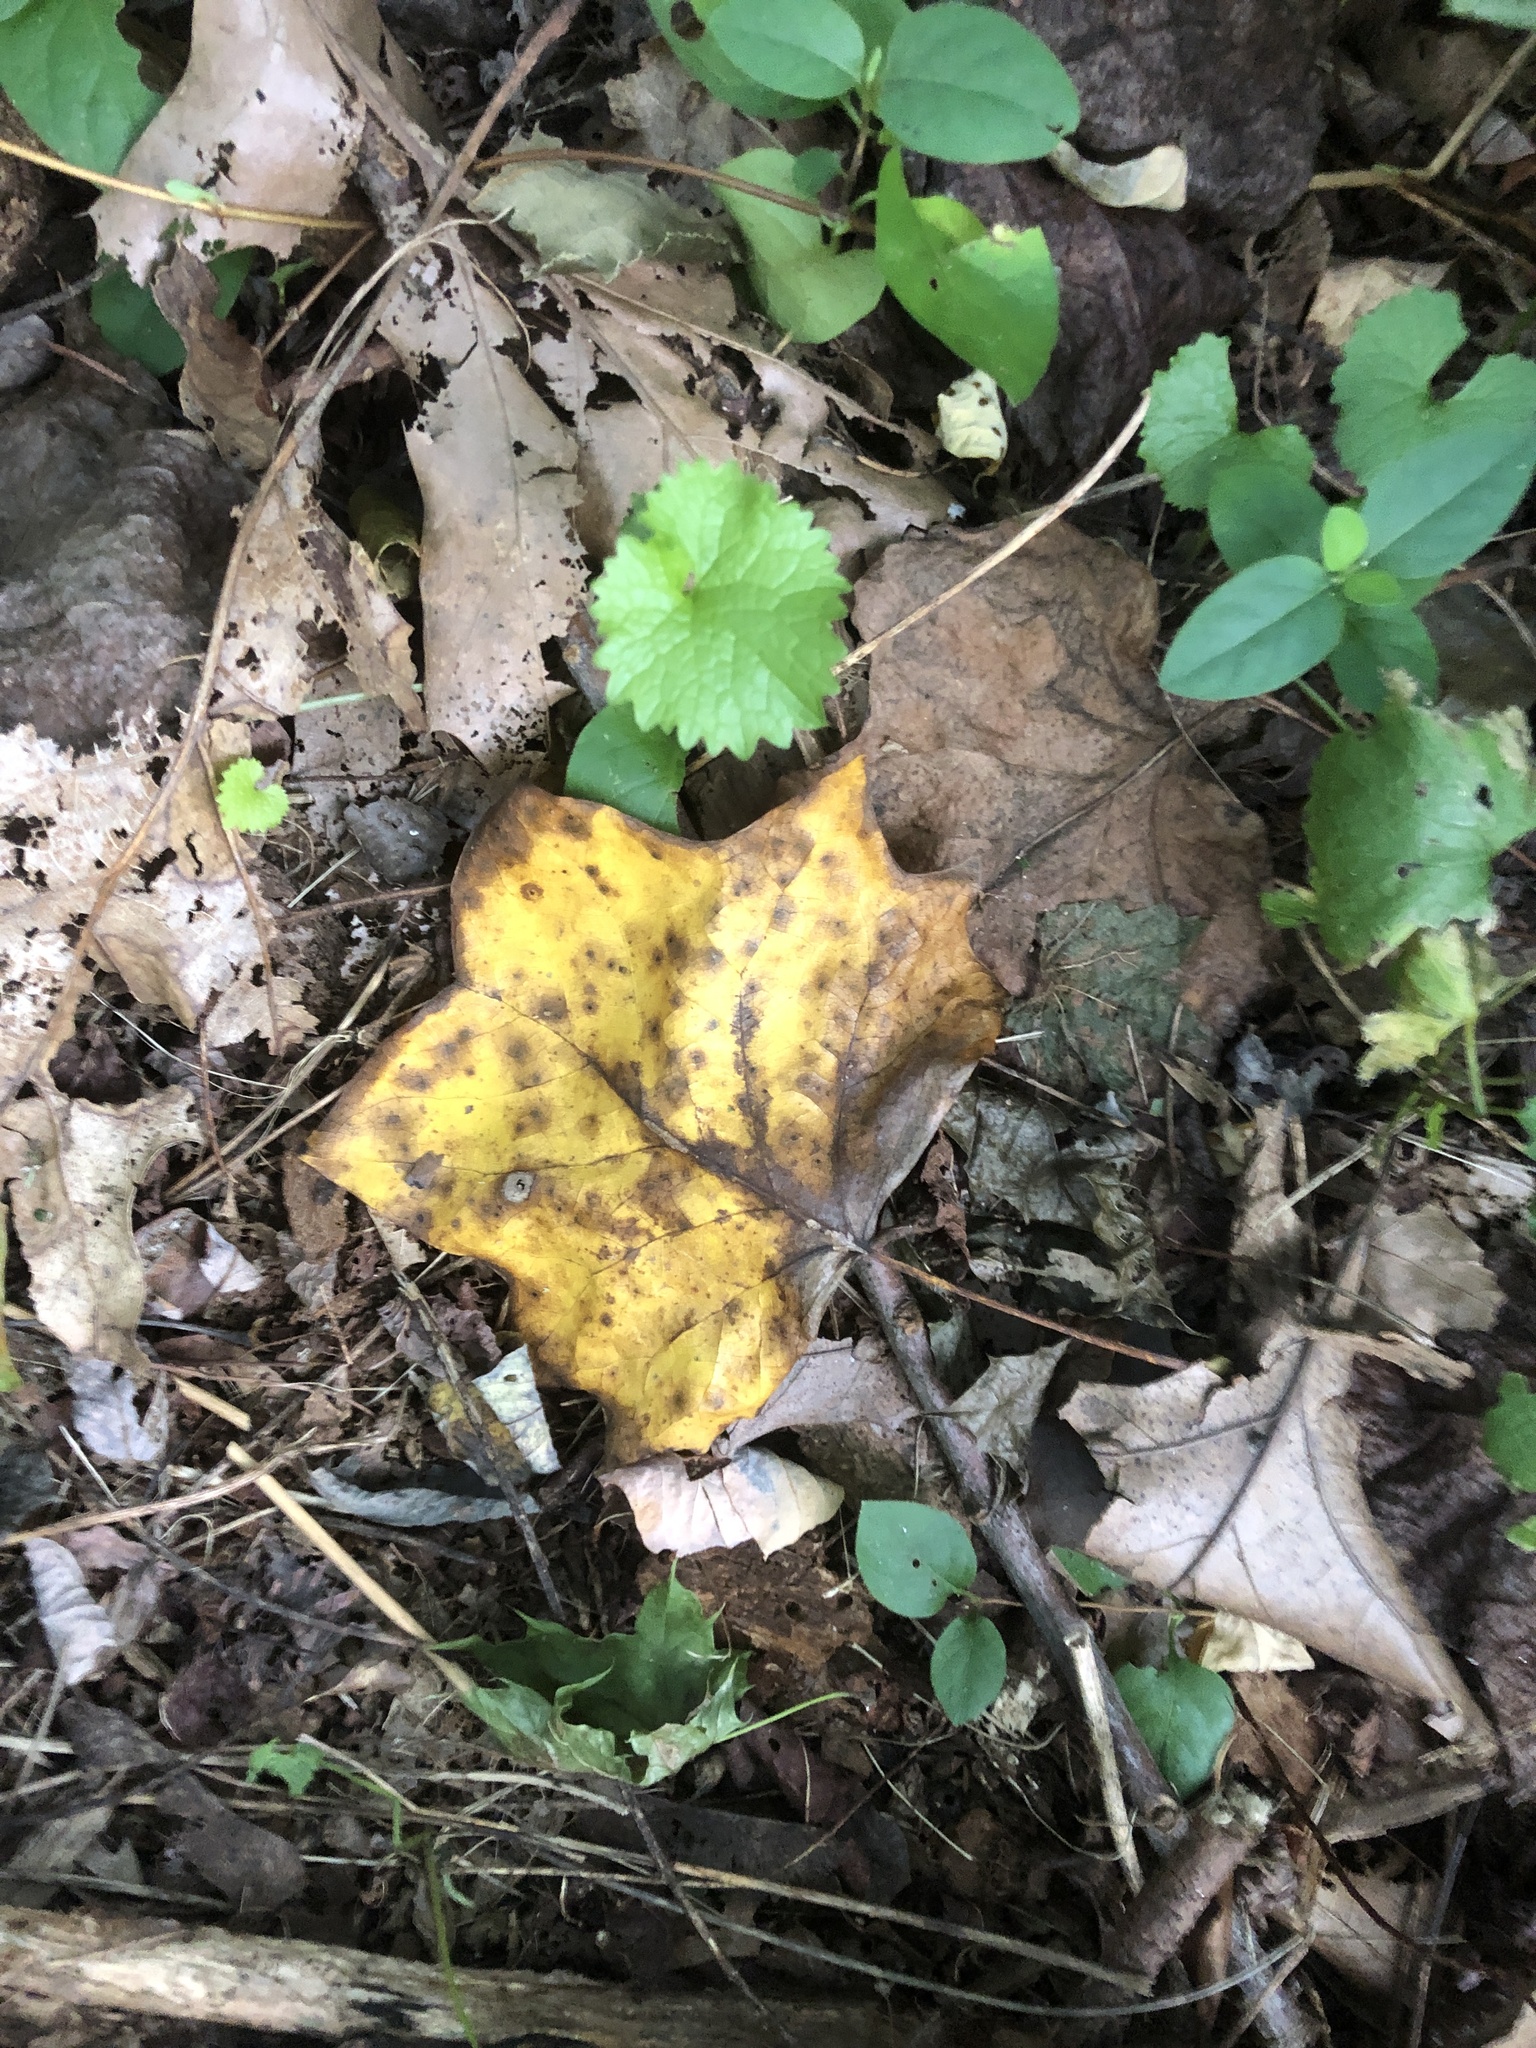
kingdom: Plantae
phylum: Tracheophyta
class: Magnoliopsida
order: Magnoliales
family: Magnoliaceae
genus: Liriodendron
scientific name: Liriodendron tulipifera
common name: Tulip tree
